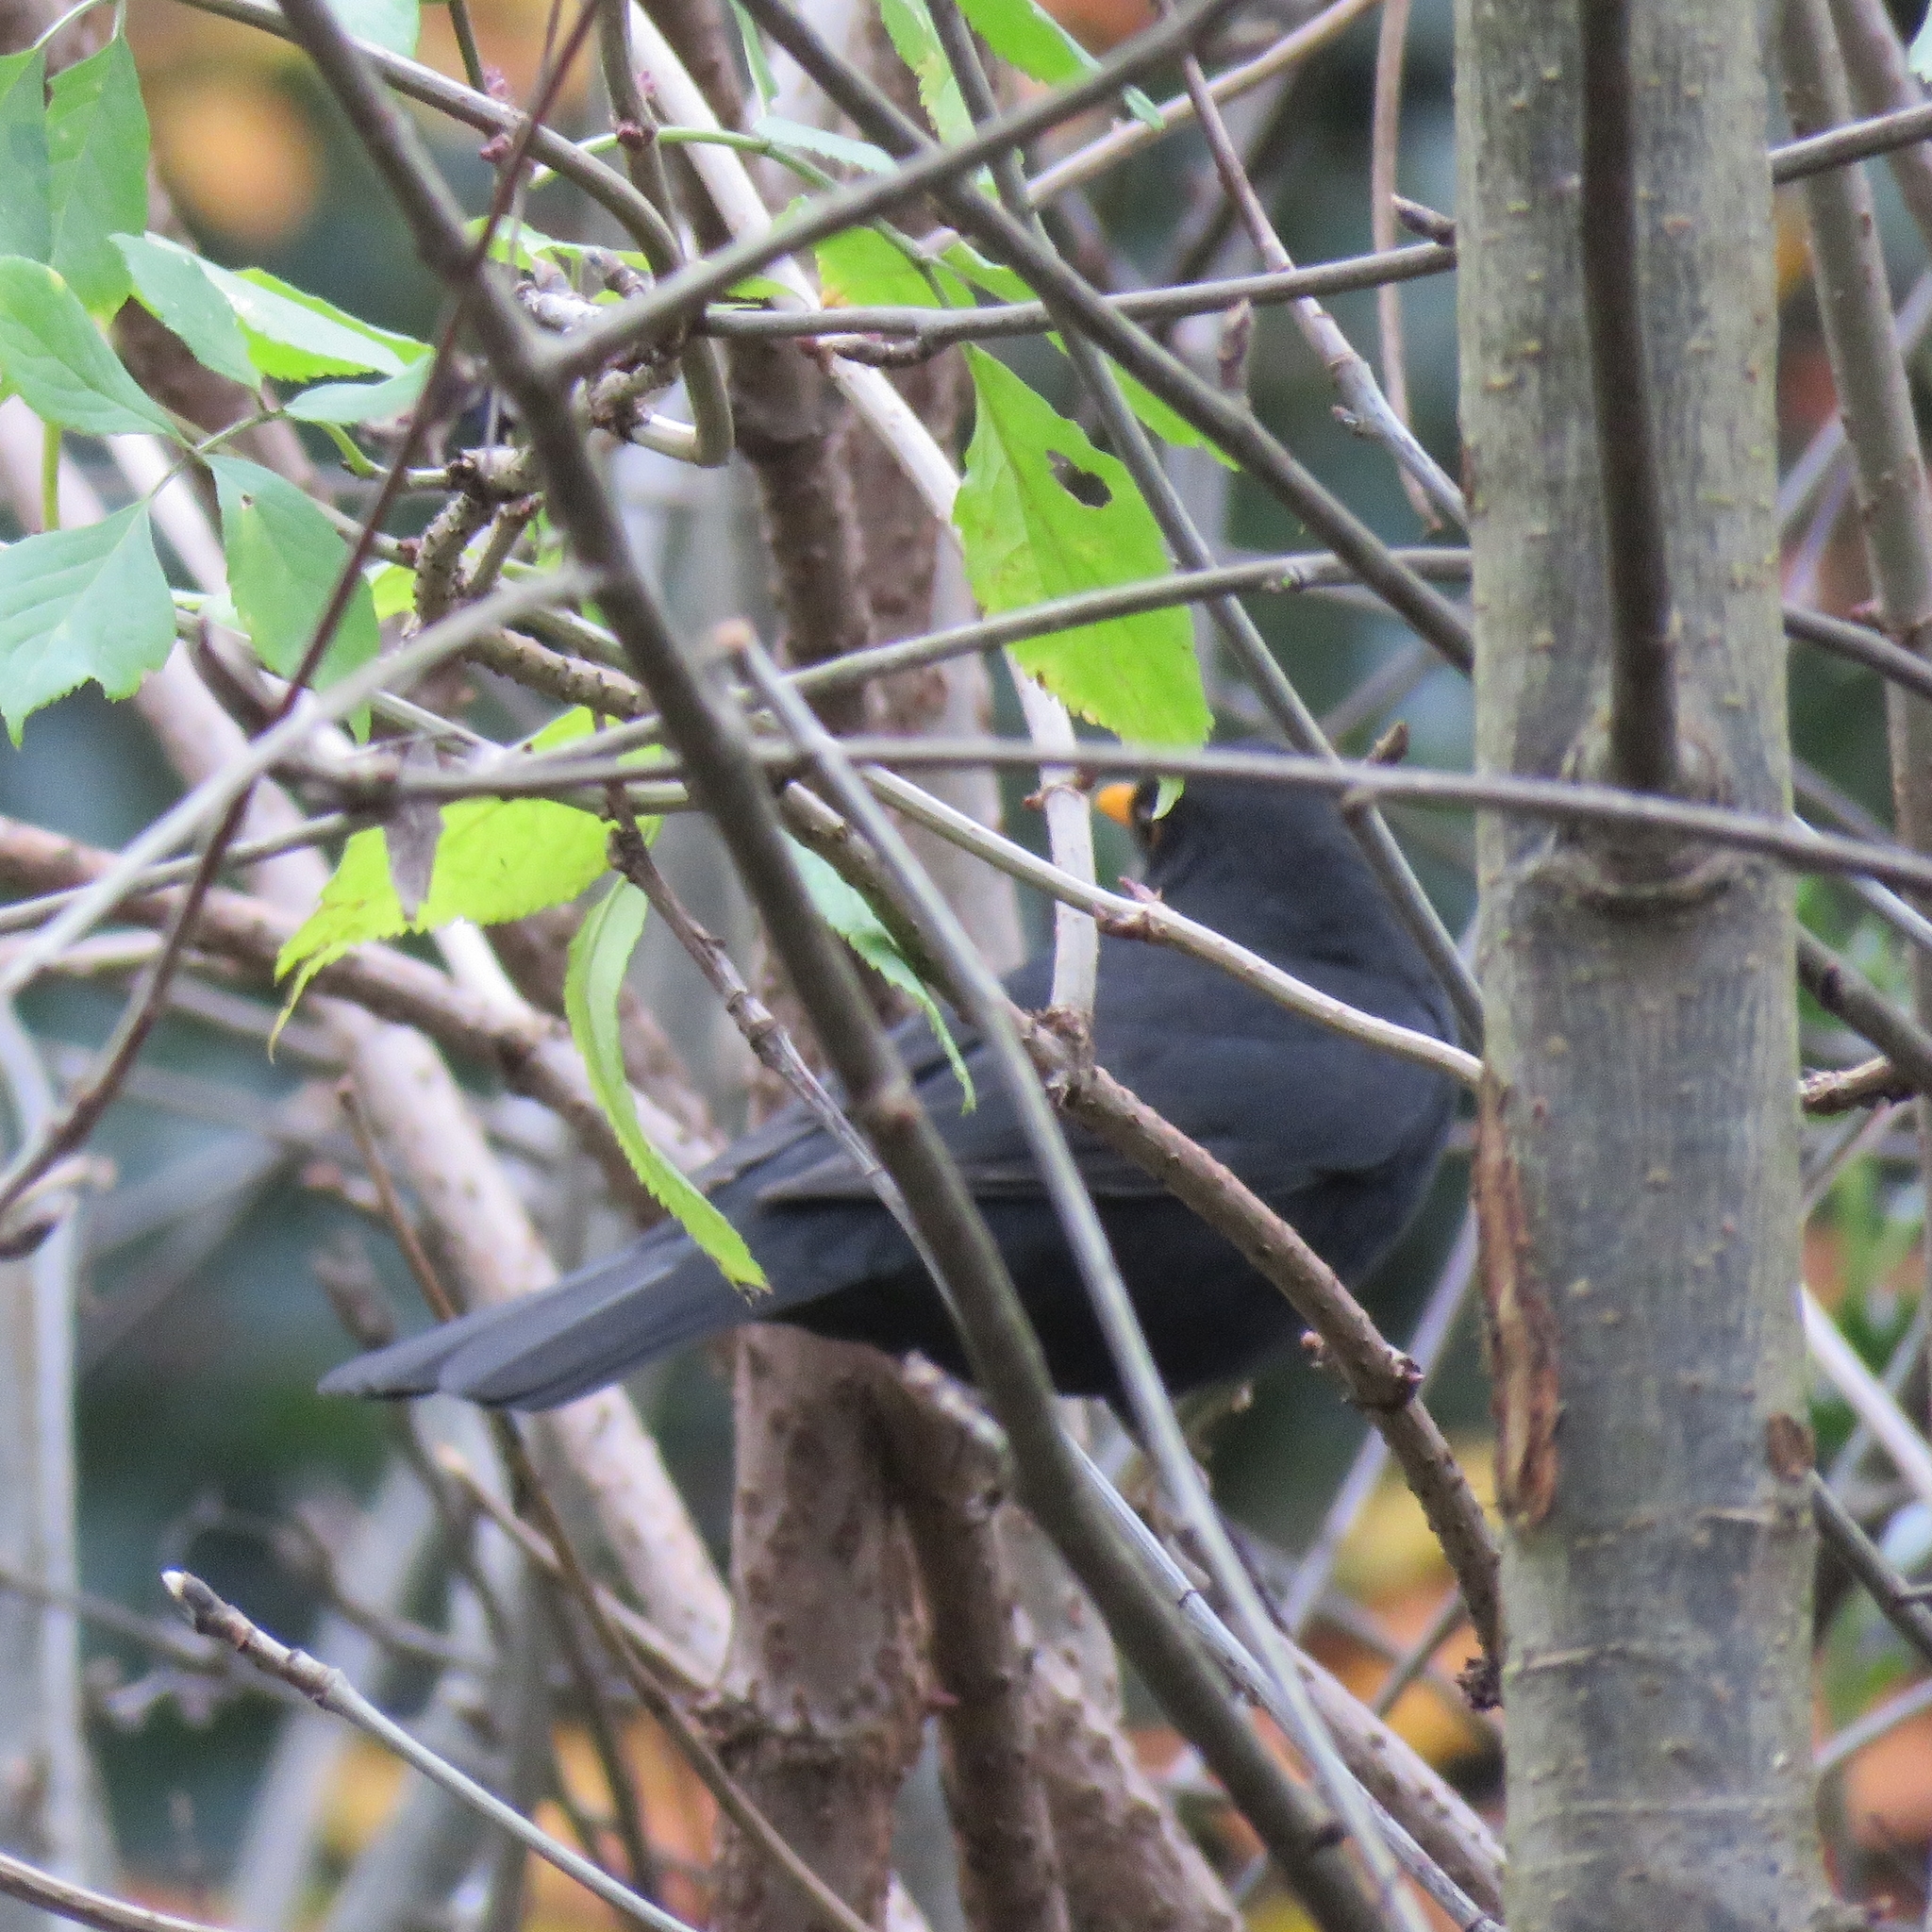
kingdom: Animalia
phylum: Chordata
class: Aves
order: Passeriformes
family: Turdidae
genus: Turdus
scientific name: Turdus merula
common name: Common blackbird
